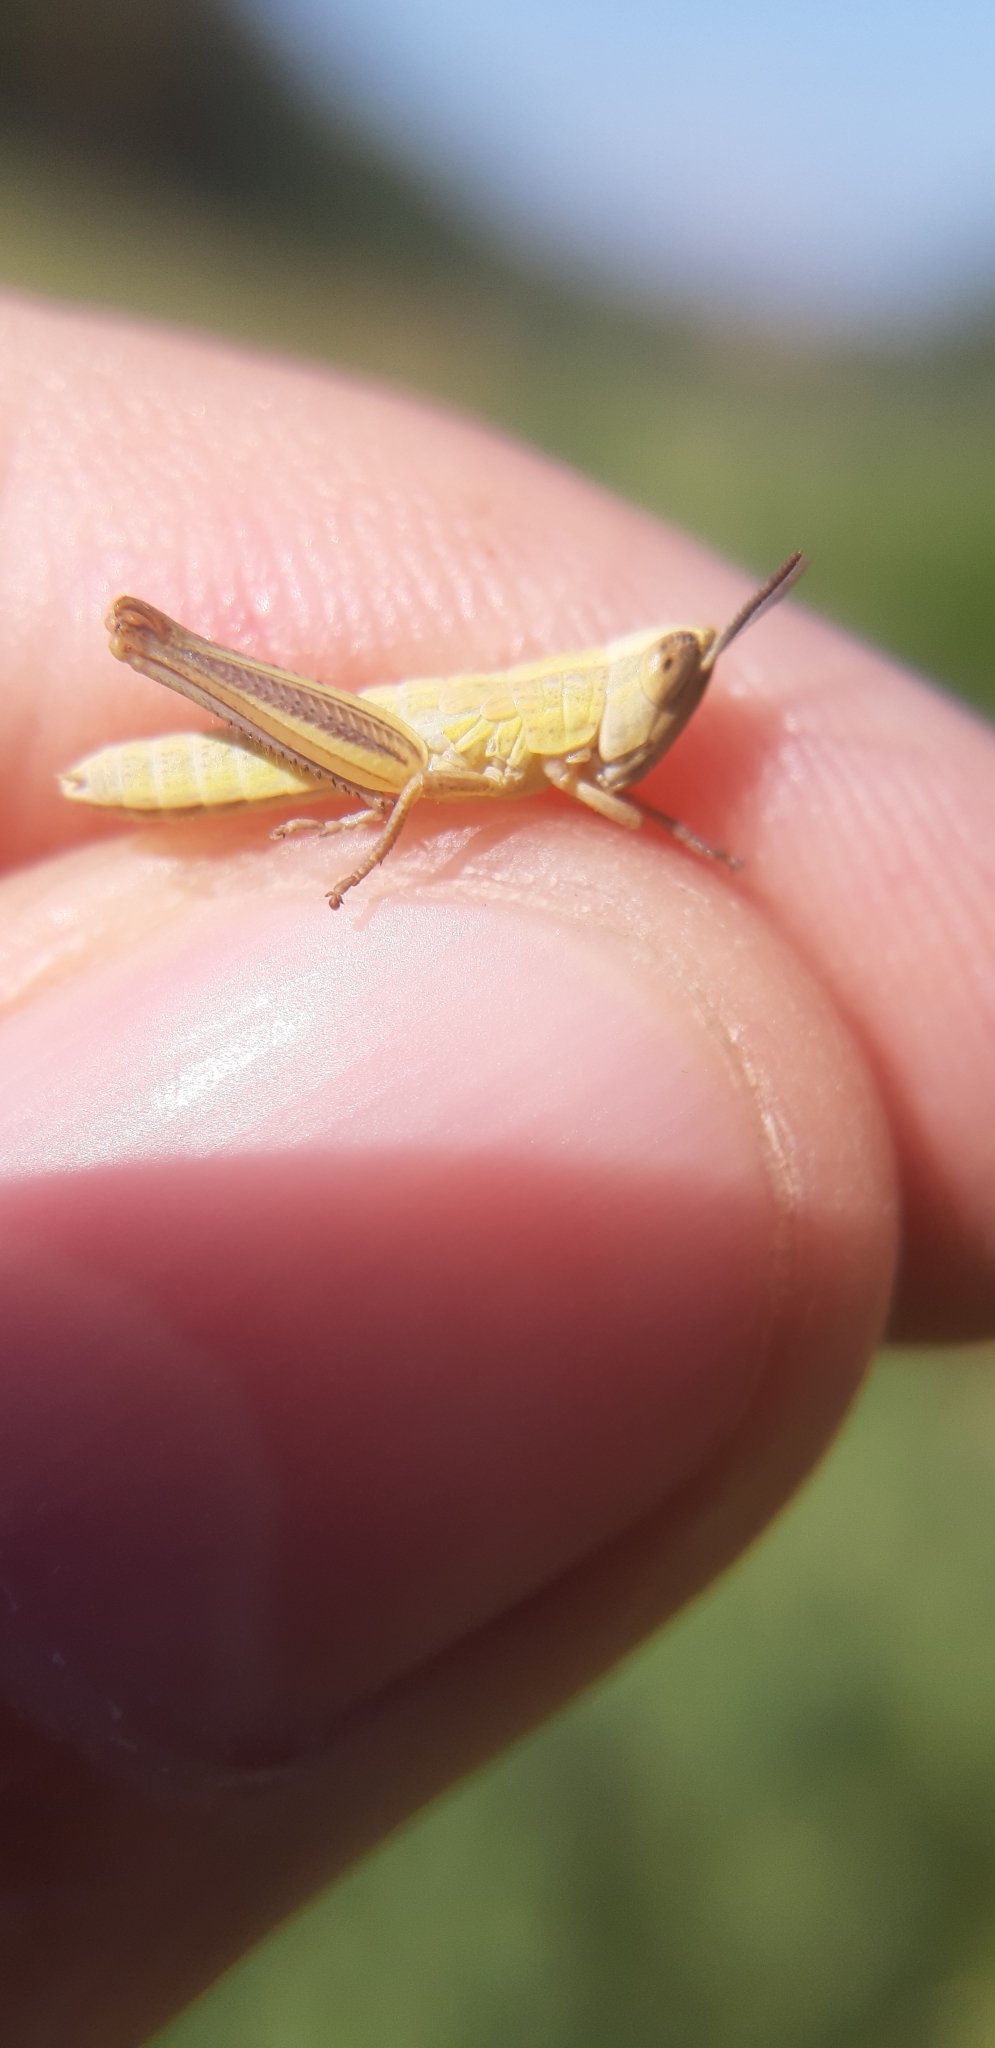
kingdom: Animalia
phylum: Arthropoda
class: Insecta
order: Orthoptera
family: Acrididae
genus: Euchorthippus
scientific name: Euchorthippus declivus
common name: Common straw grasshopper
